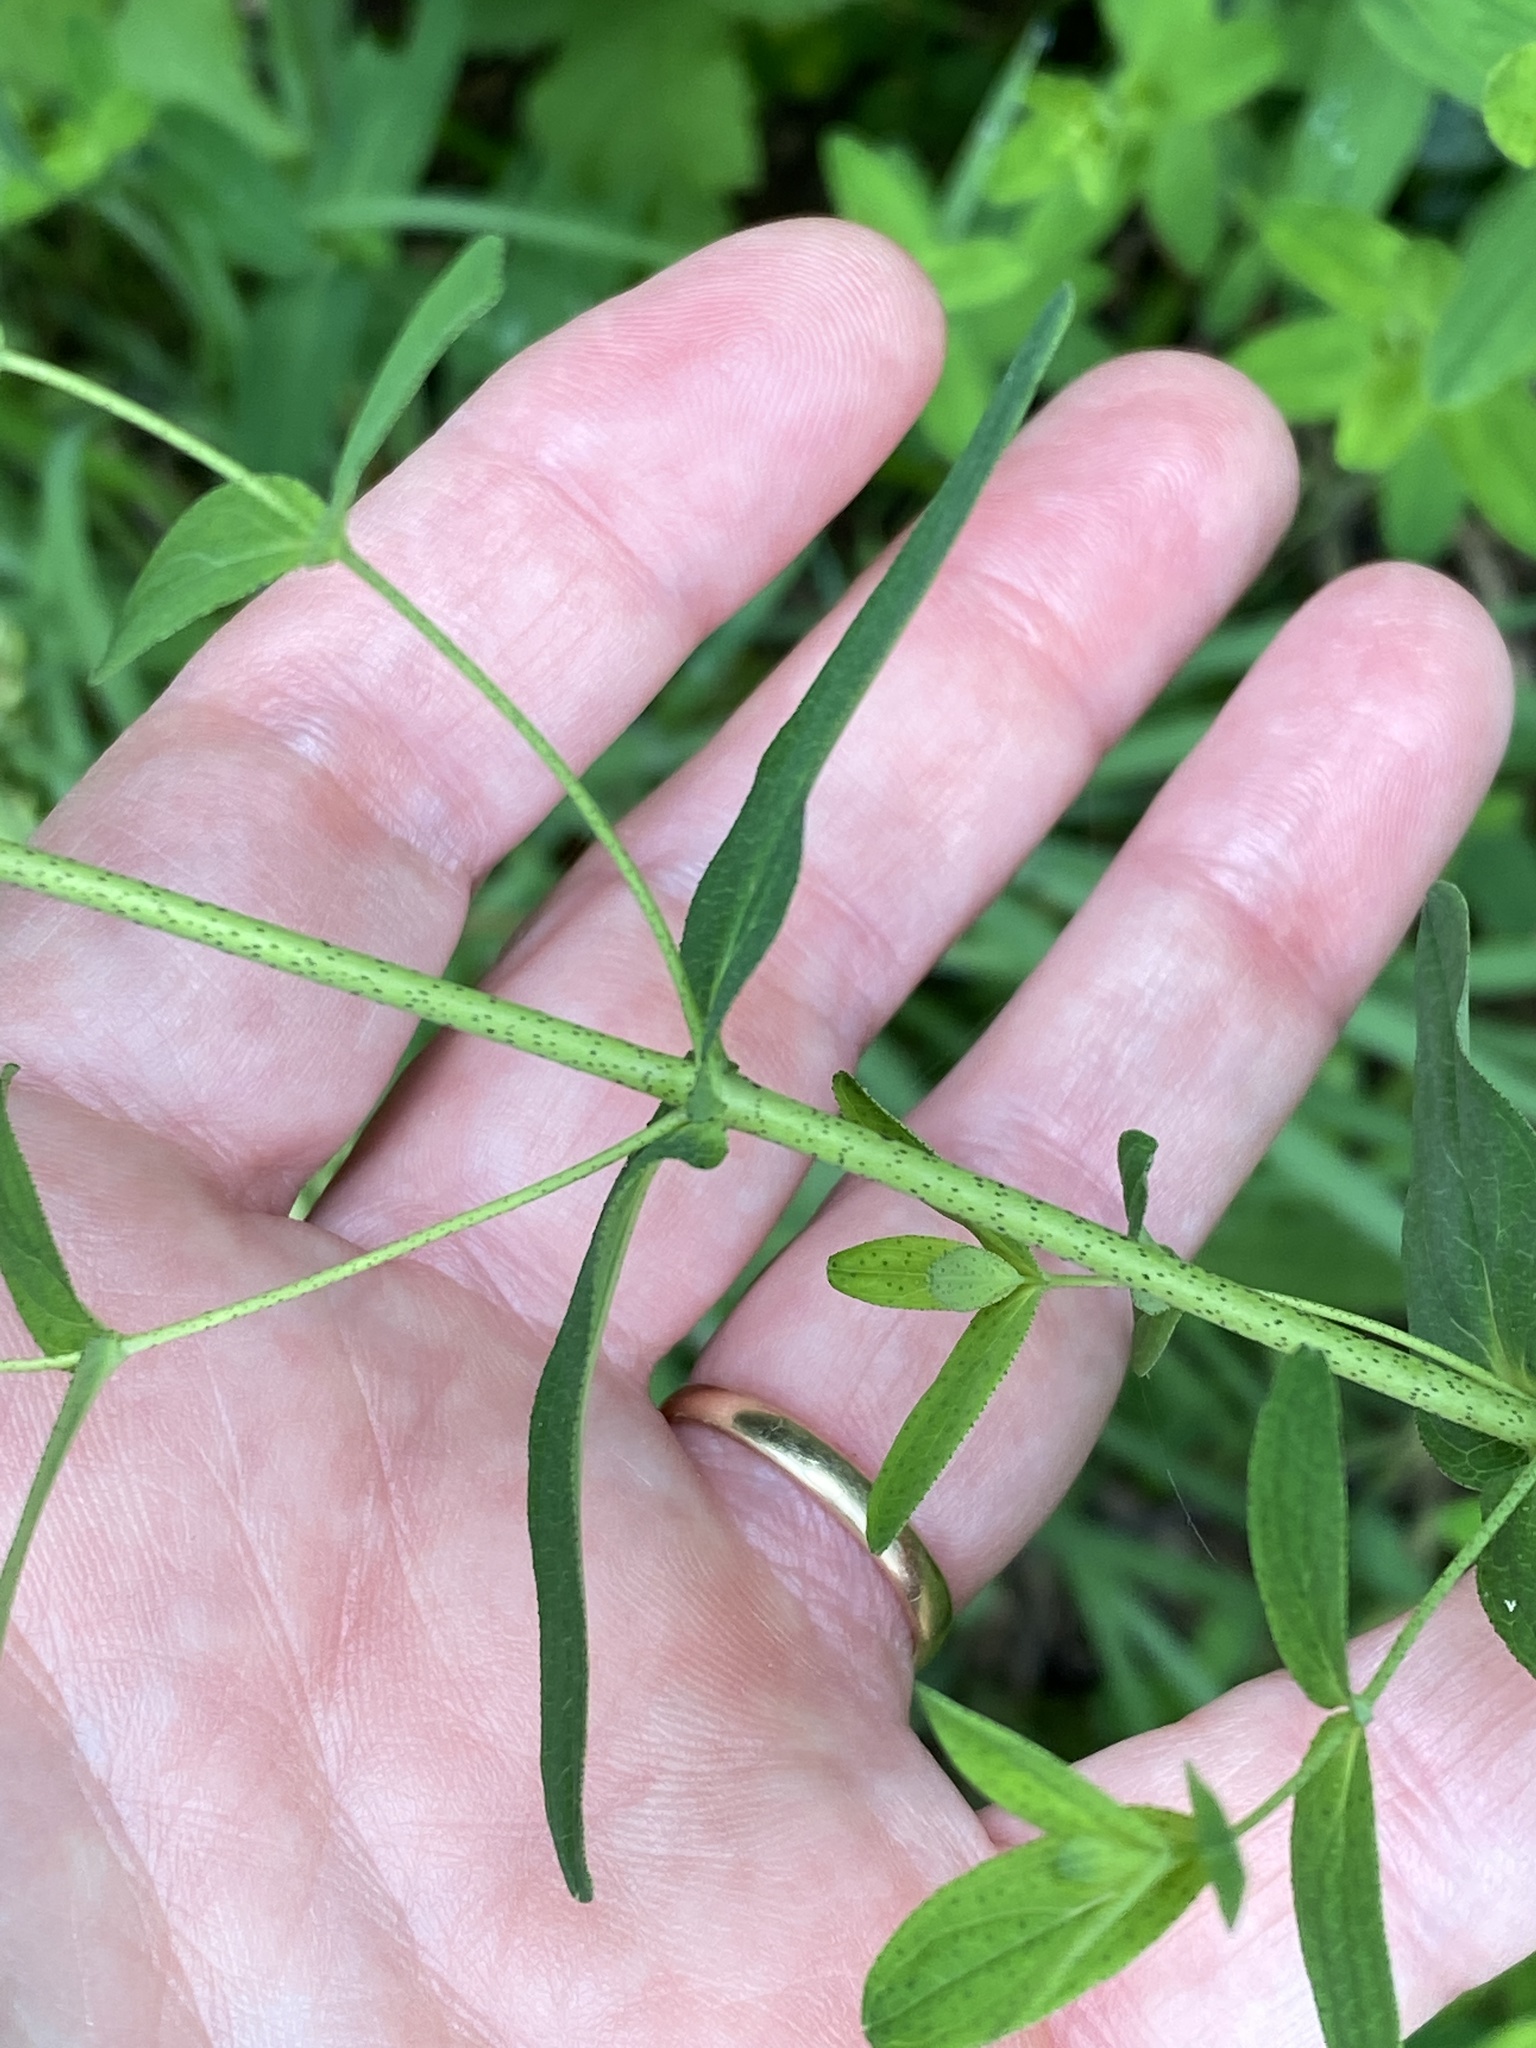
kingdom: Plantae
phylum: Tracheophyta
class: Magnoliopsida
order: Malpighiales
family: Hypericaceae
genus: Hypericum
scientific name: Hypericum punctatum
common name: Spotted st. john's-wort
